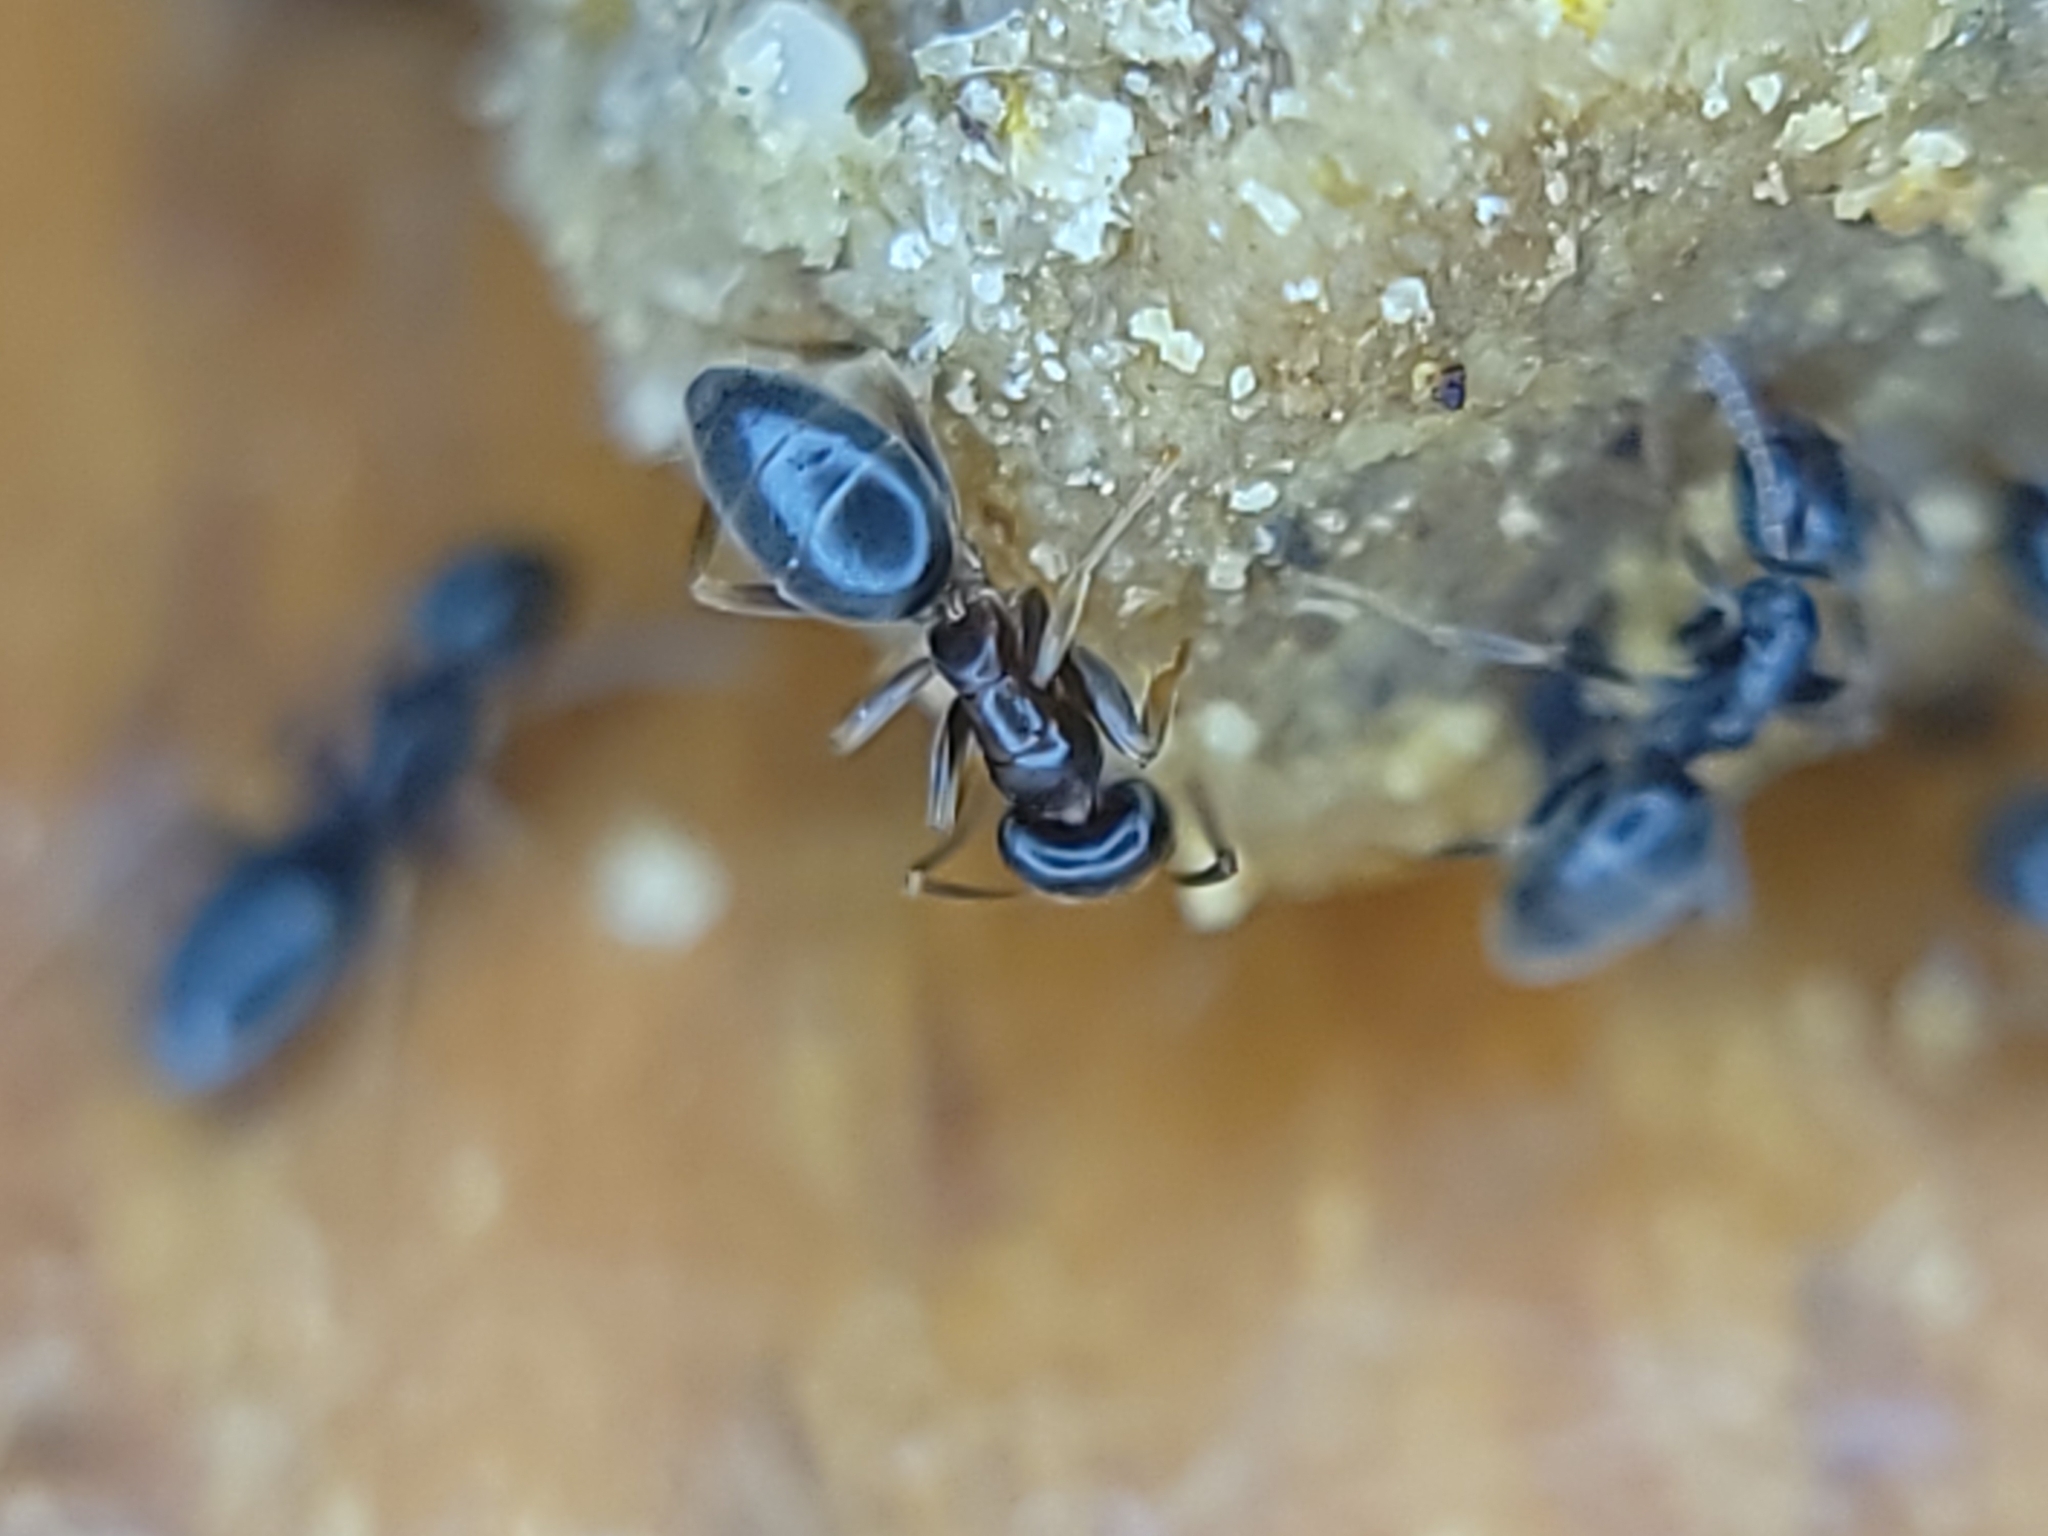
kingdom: Animalia
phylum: Arthropoda
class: Insecta
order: Hymenoptera
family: Formicidae
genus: Tapinoma
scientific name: Tapinoma sessile
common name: Odorous house ant
